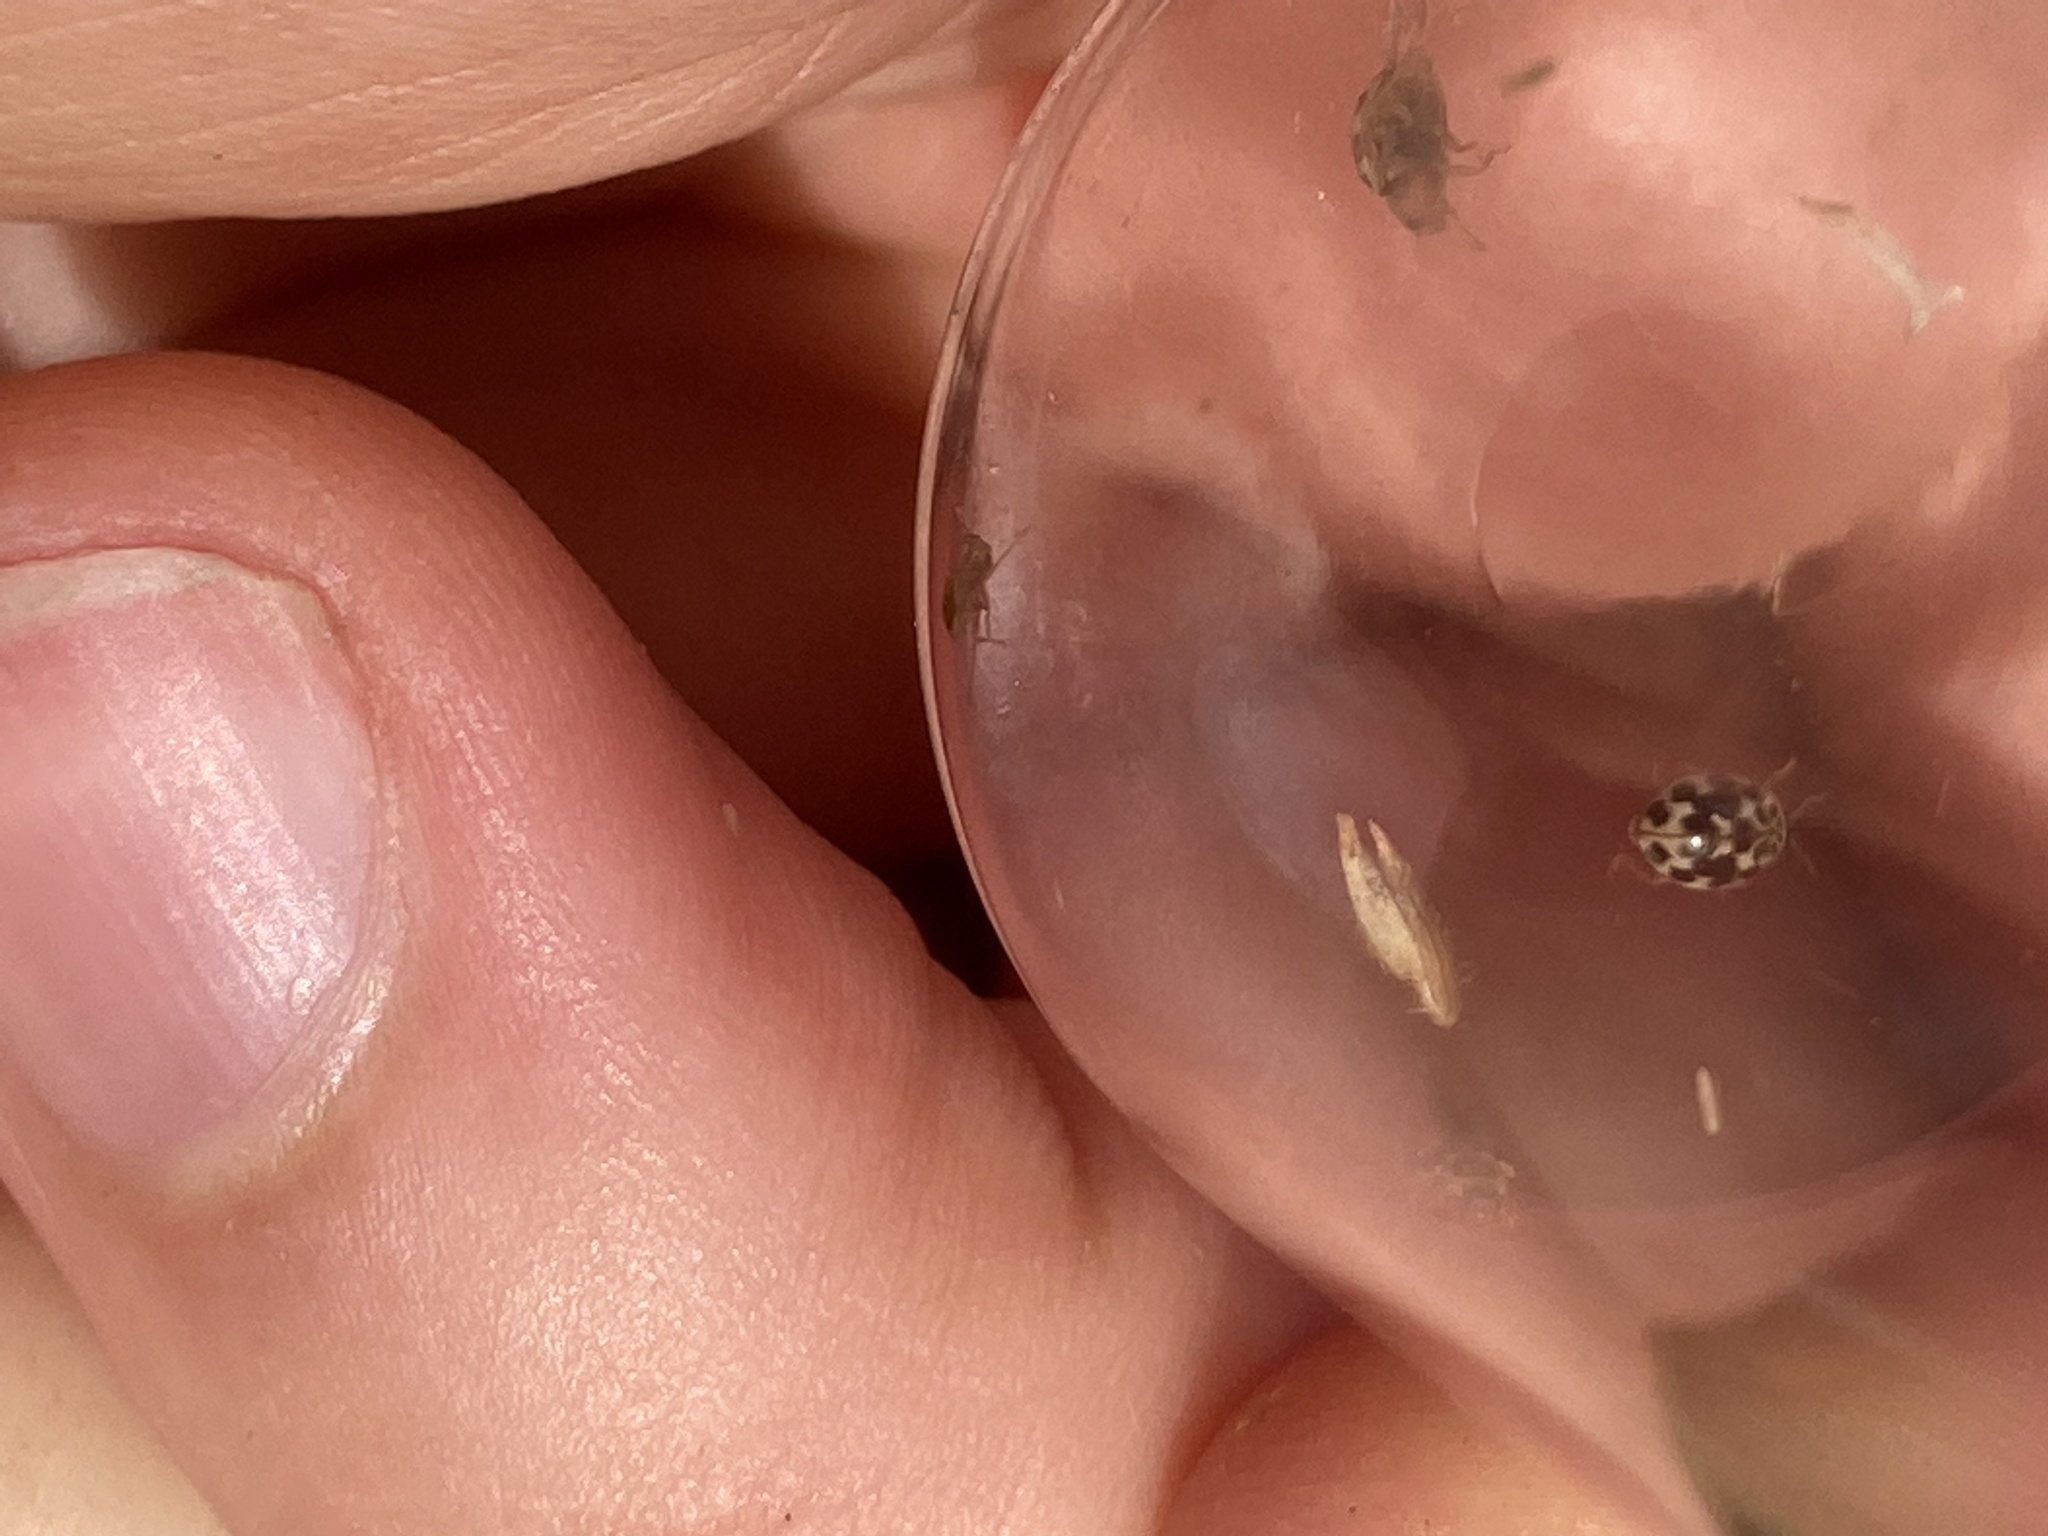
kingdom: Animalia
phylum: Arthropoda
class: Insecta
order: Coleoptera
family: Coccinellidae
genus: Psyllobora
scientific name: Psyllobora vigintimaculata
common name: Ladybird beetle
